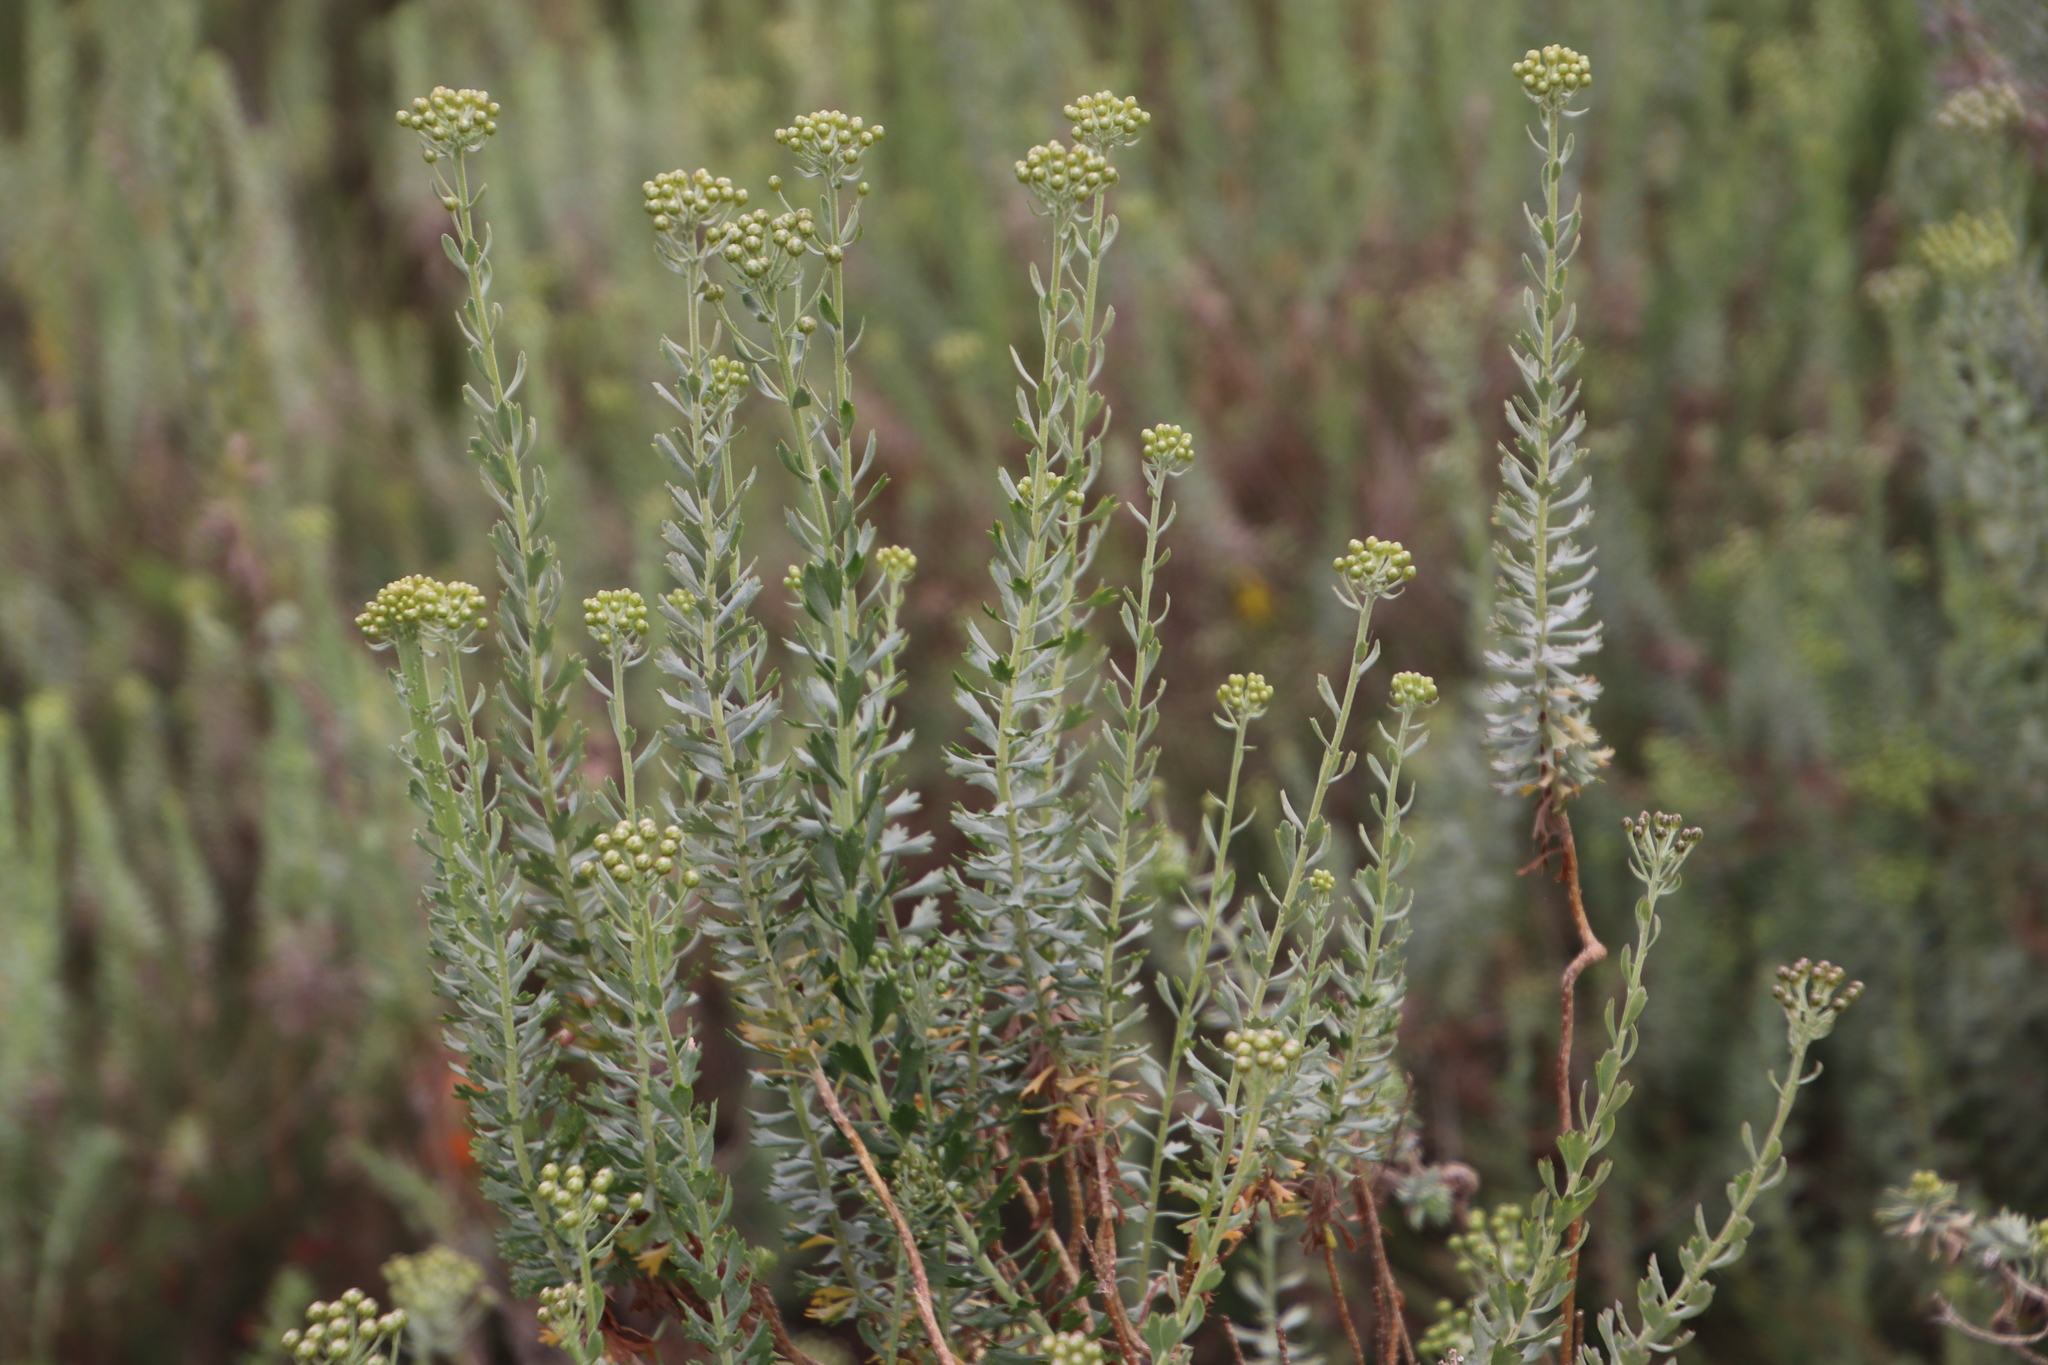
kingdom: Plantae
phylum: Tracheophyta
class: Magnoliopsida
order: Asterales
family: Asteraceae
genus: Athanasia
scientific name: Athanasia trifurcata
